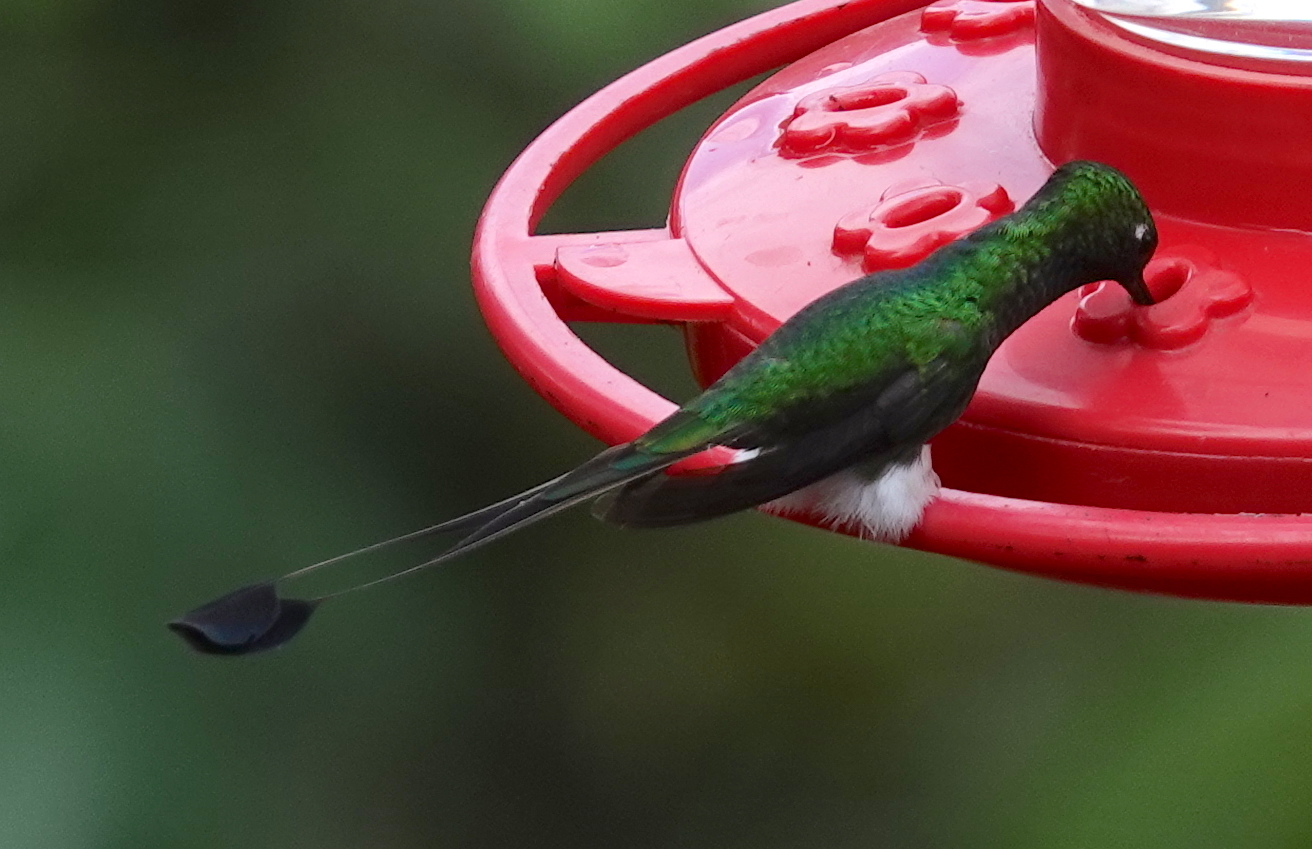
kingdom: Animalia
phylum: Chordata
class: Aves
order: Apodiformes
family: Trochilidae
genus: Ocreatus
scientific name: Ocreatus underwoodii
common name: Booted racket-tail
